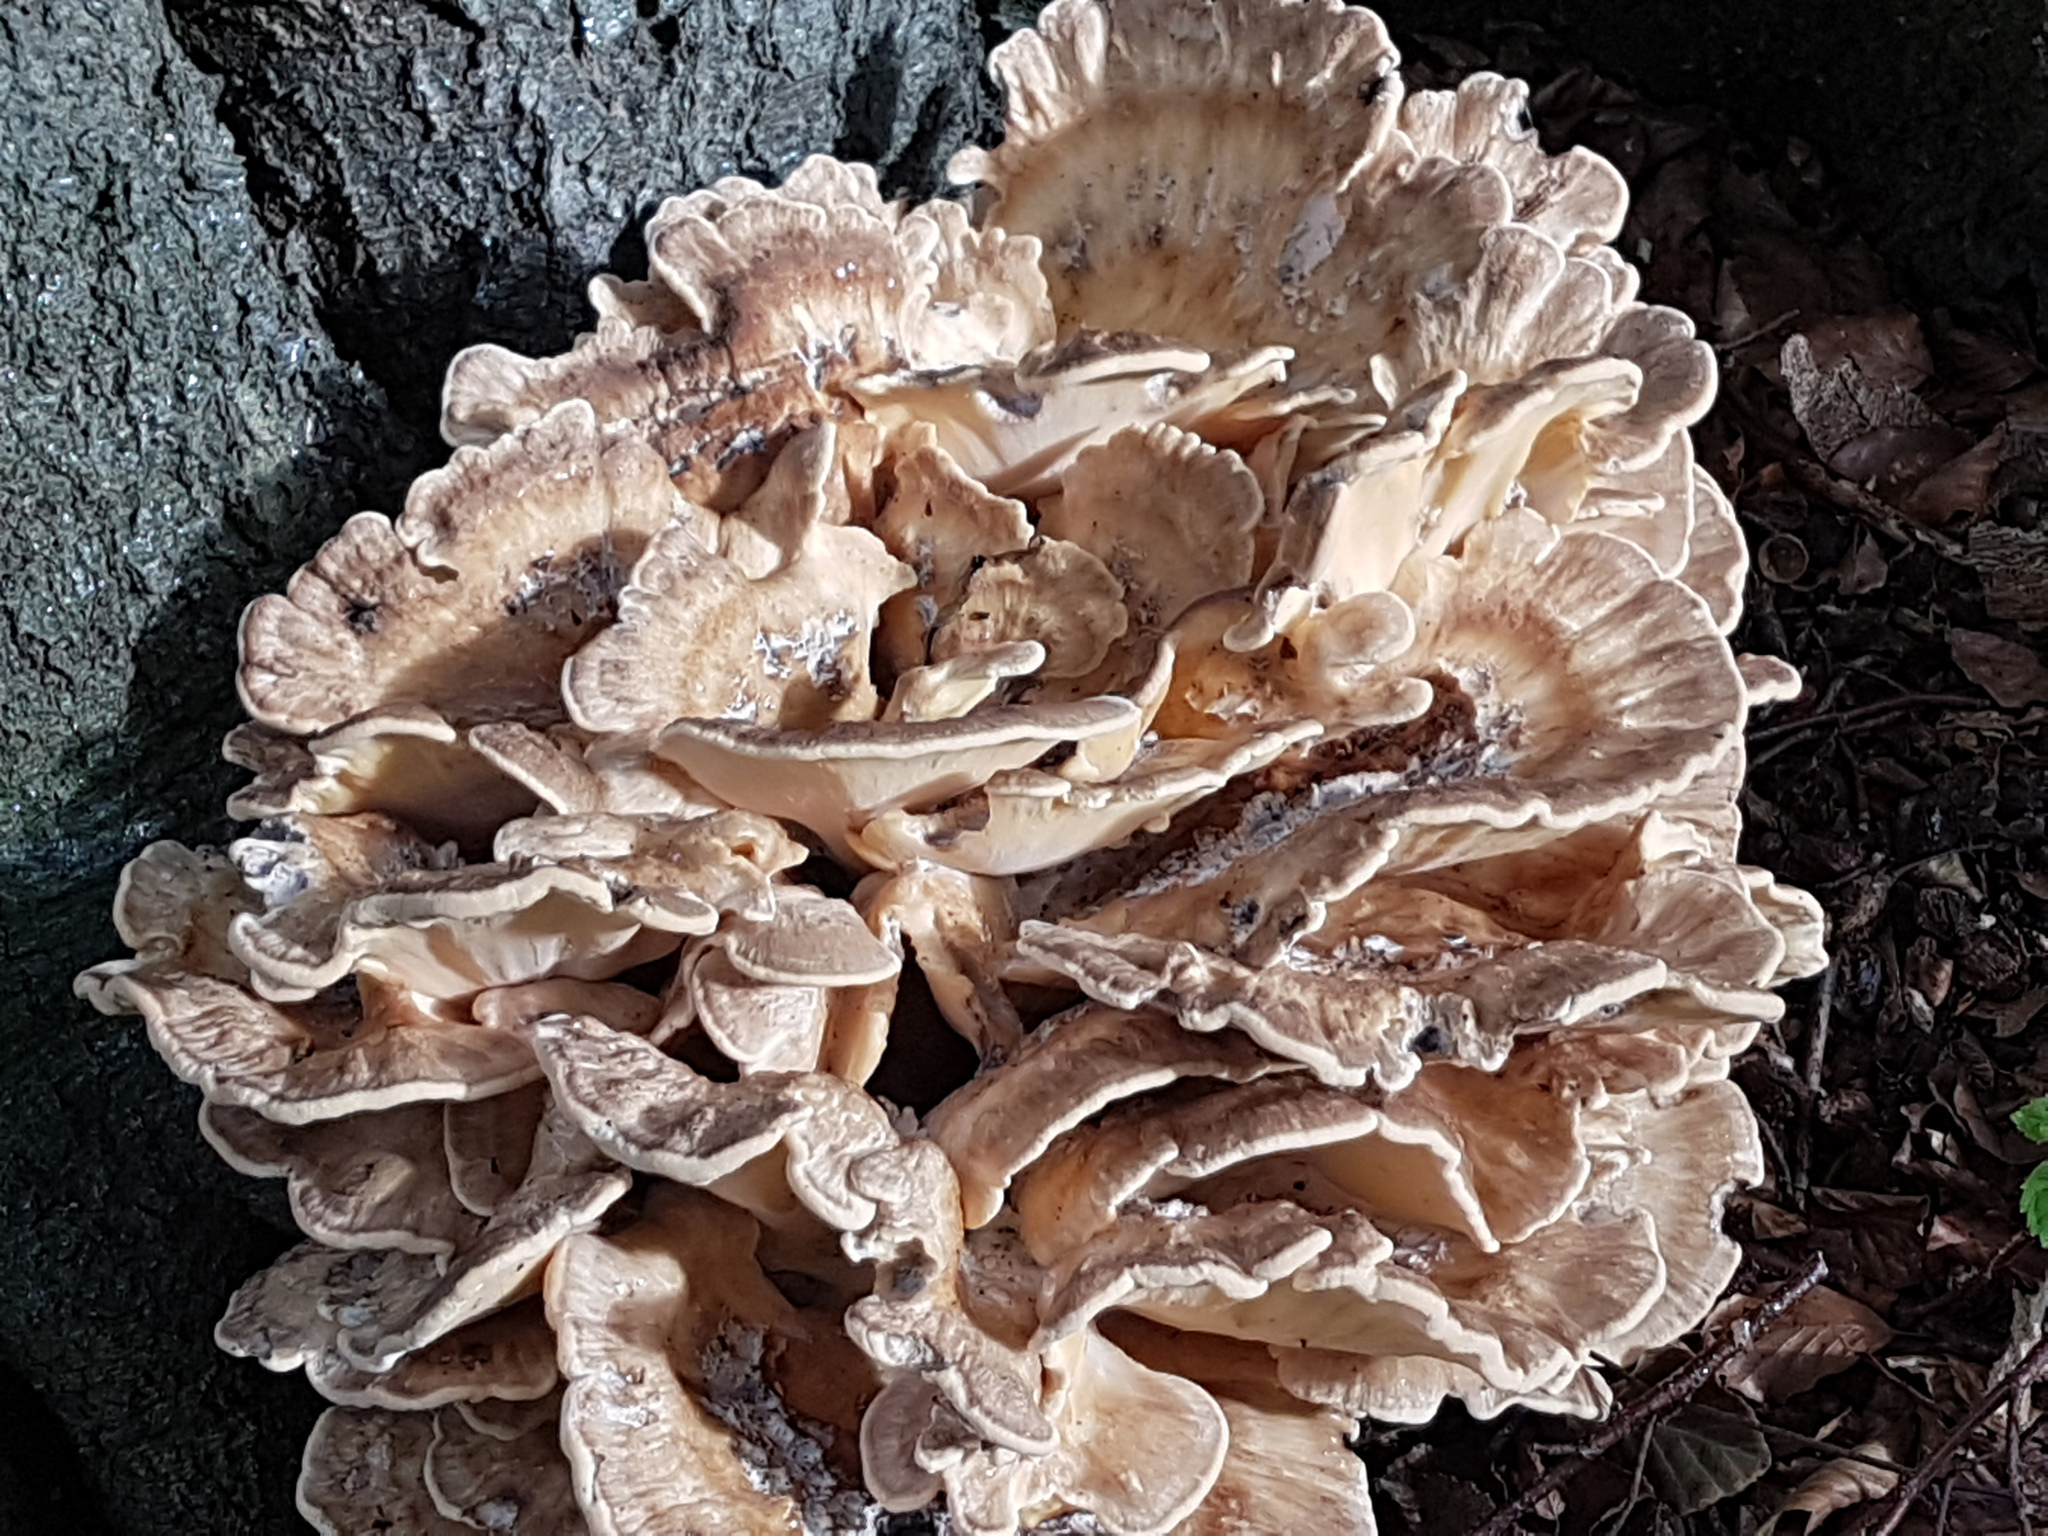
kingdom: Fungi
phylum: Basidiomycota
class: Agaricomycetes
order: Polyporales
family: Meripilaceae
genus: Meripilus
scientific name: Meripilus giganteus
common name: Giant polypore
